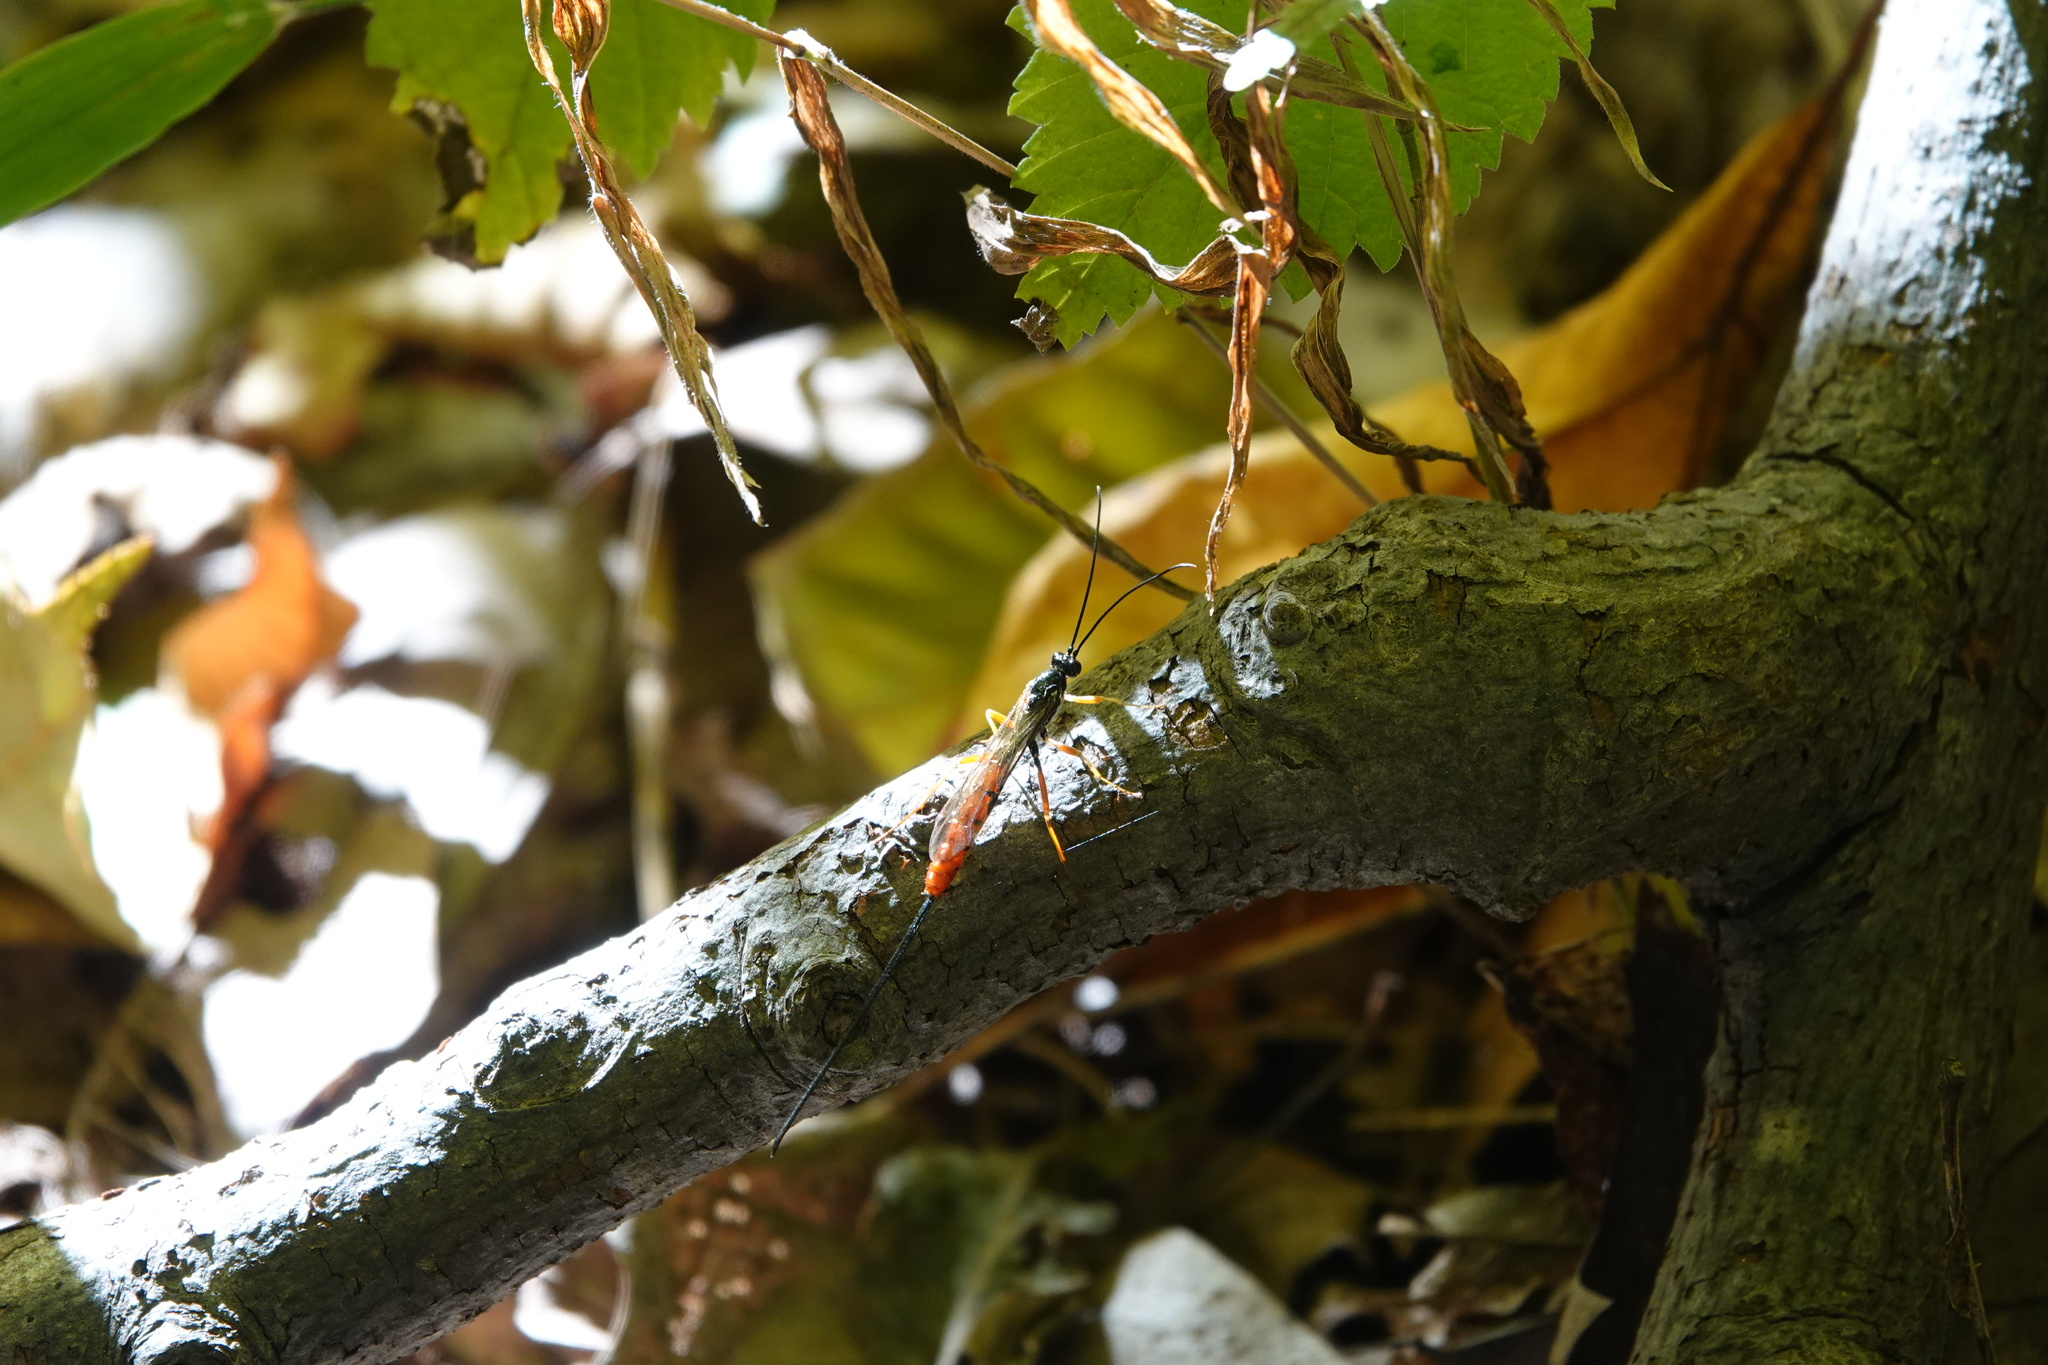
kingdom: Animalia
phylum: Arthropoda
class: Insecta
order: Hymenoptera
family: Ichneumonidae
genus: Dolichomitus
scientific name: Dolichomitus irritator
